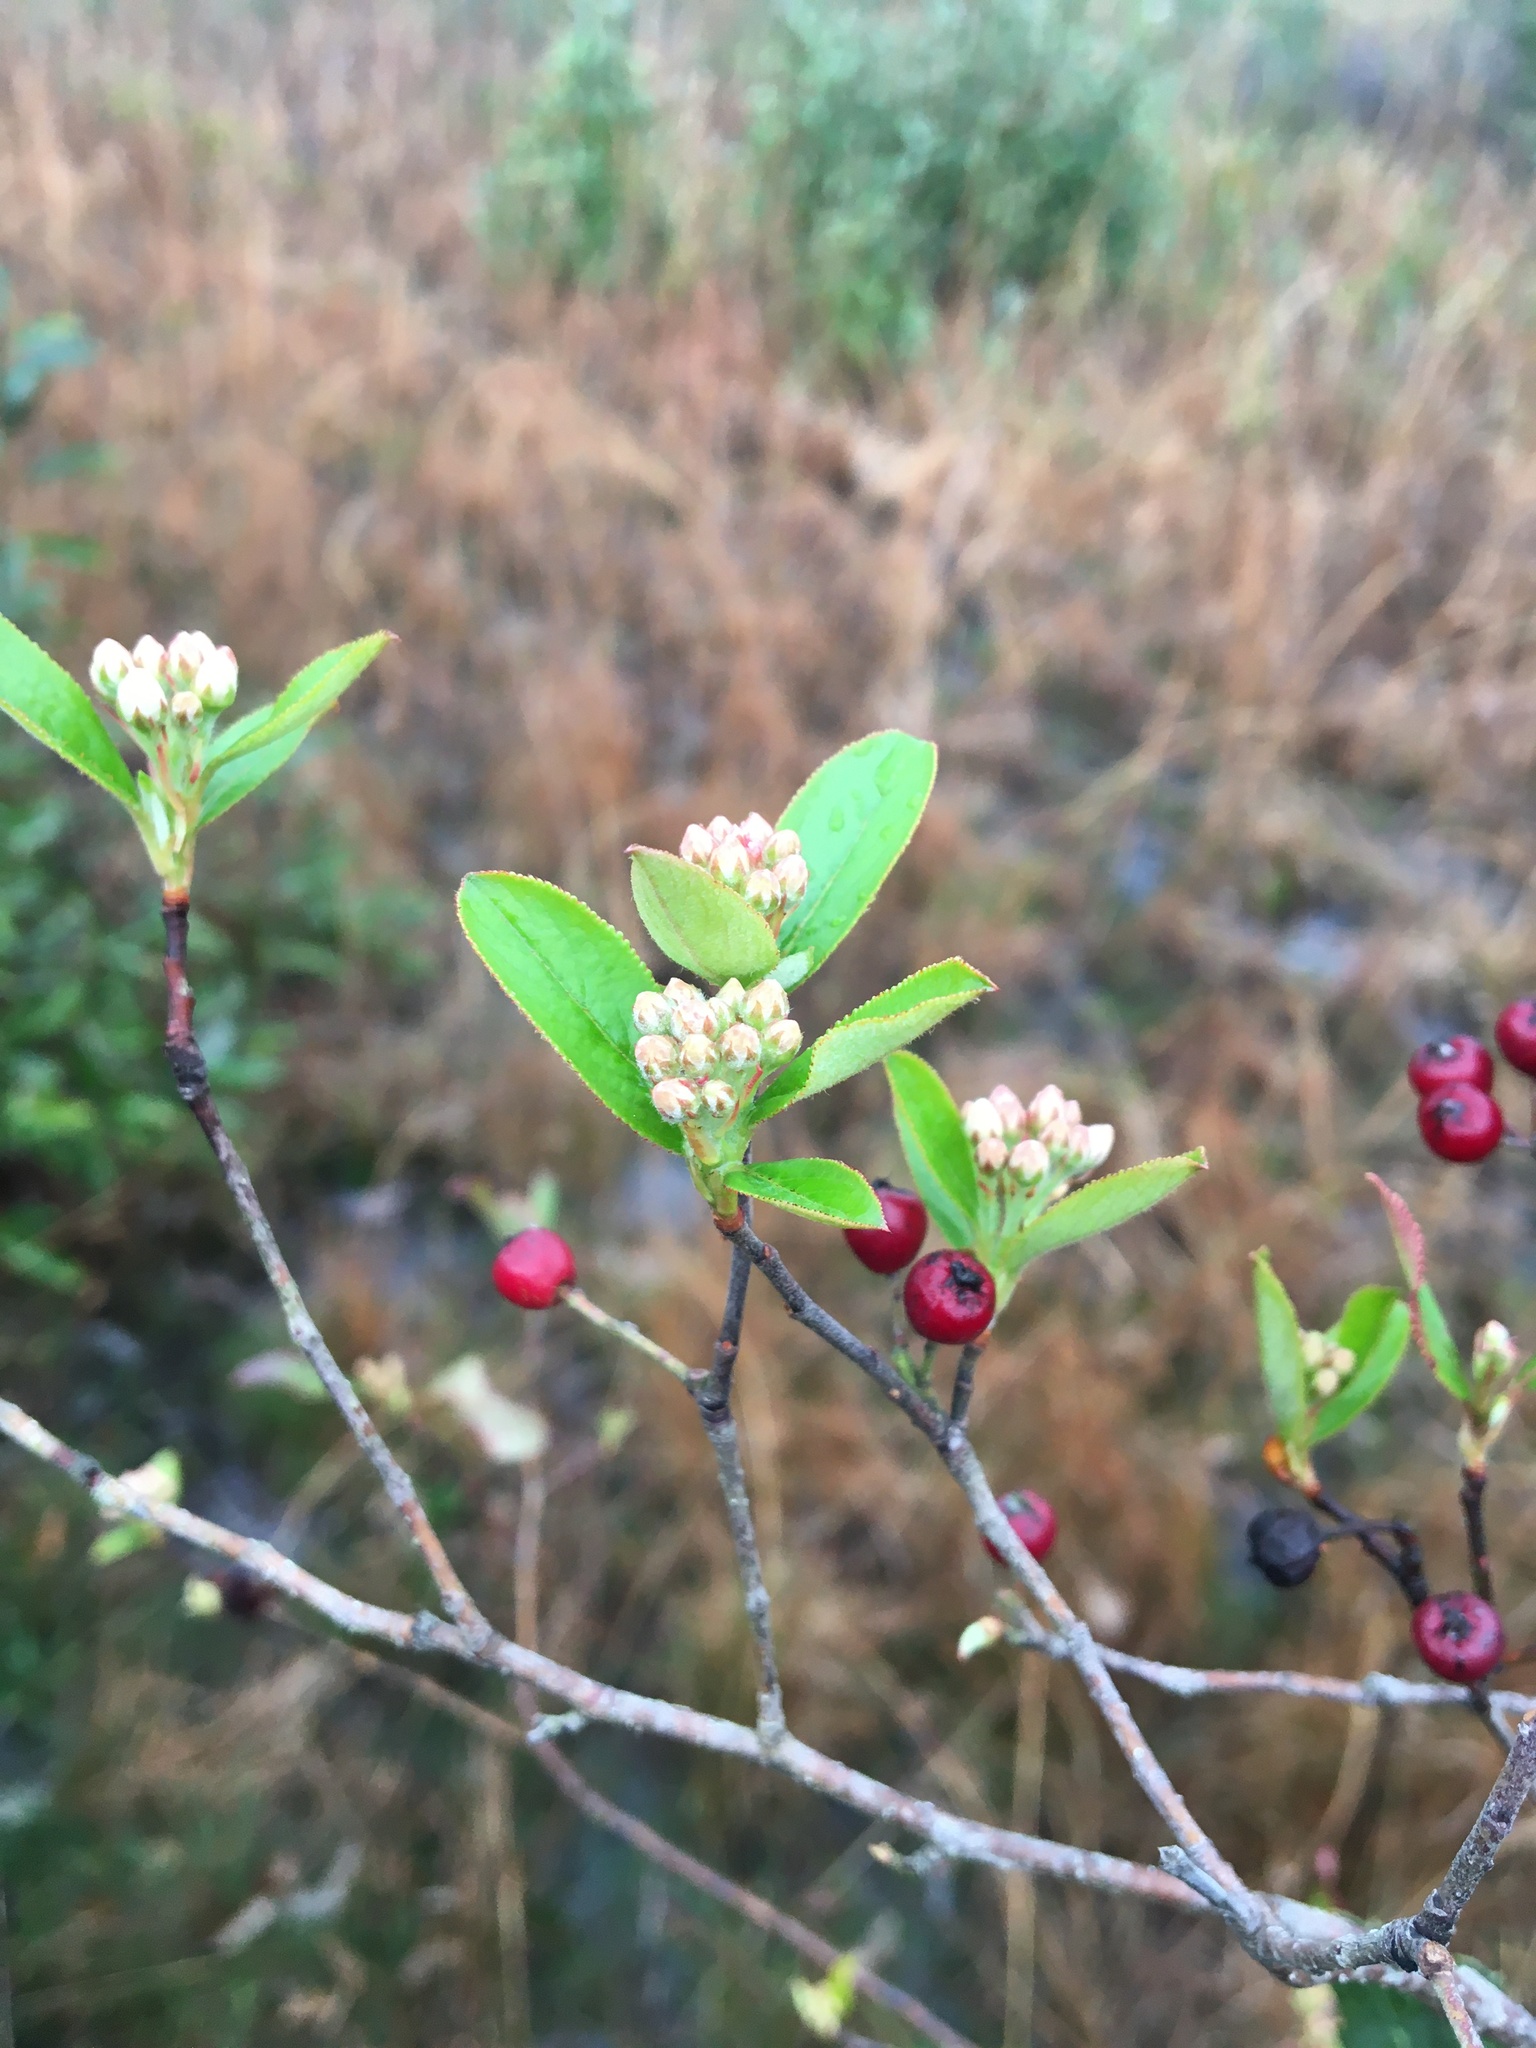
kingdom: Plantae
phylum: Tracheophyta
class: Magnoliopsida
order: Rosales
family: Rosaceae
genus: Aronia
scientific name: Aronia arbutifolia
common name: Red chokeberry
